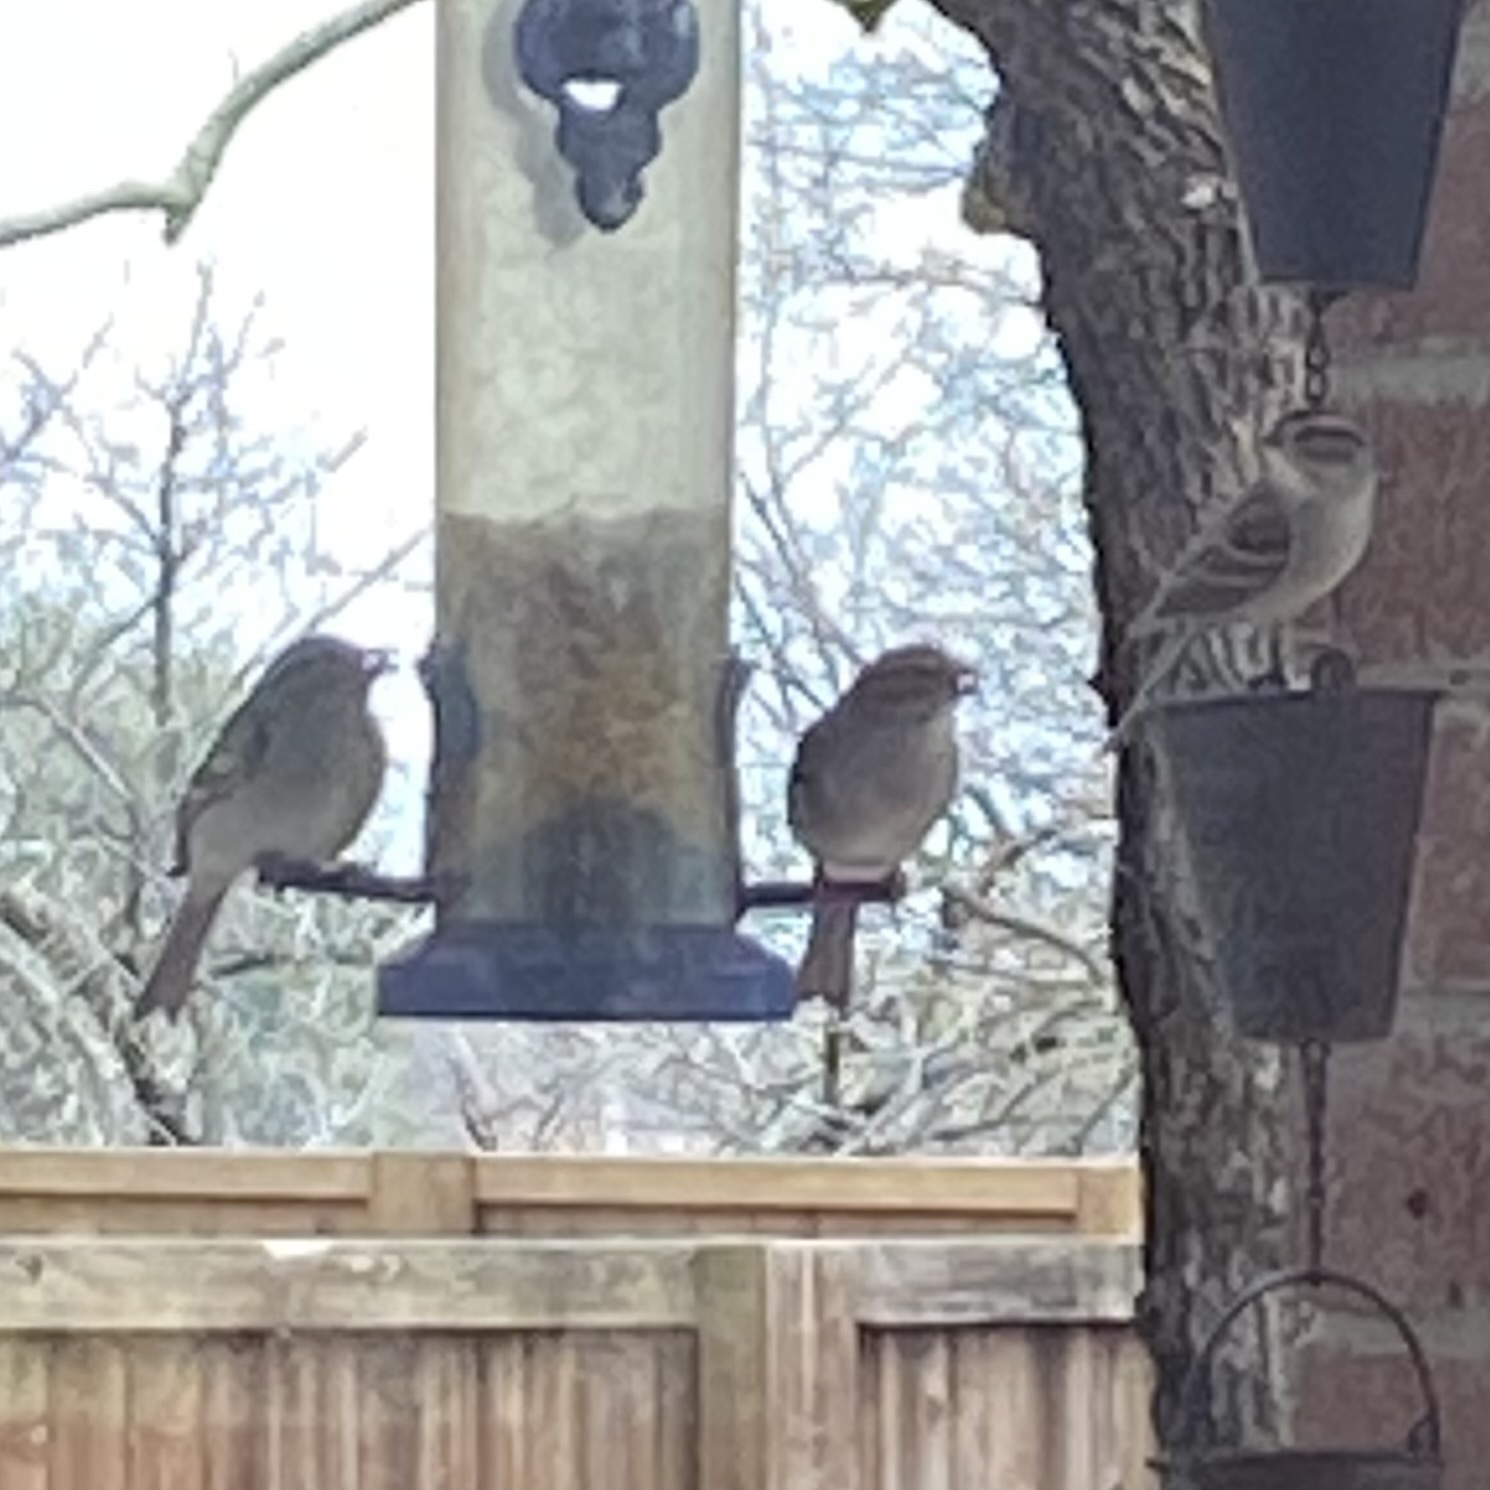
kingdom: Animalia
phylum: Chordata
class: Aves
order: Passeriformes
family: Passerellidae
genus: Spizella
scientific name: Spizella passerina
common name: Chipping sparrow
